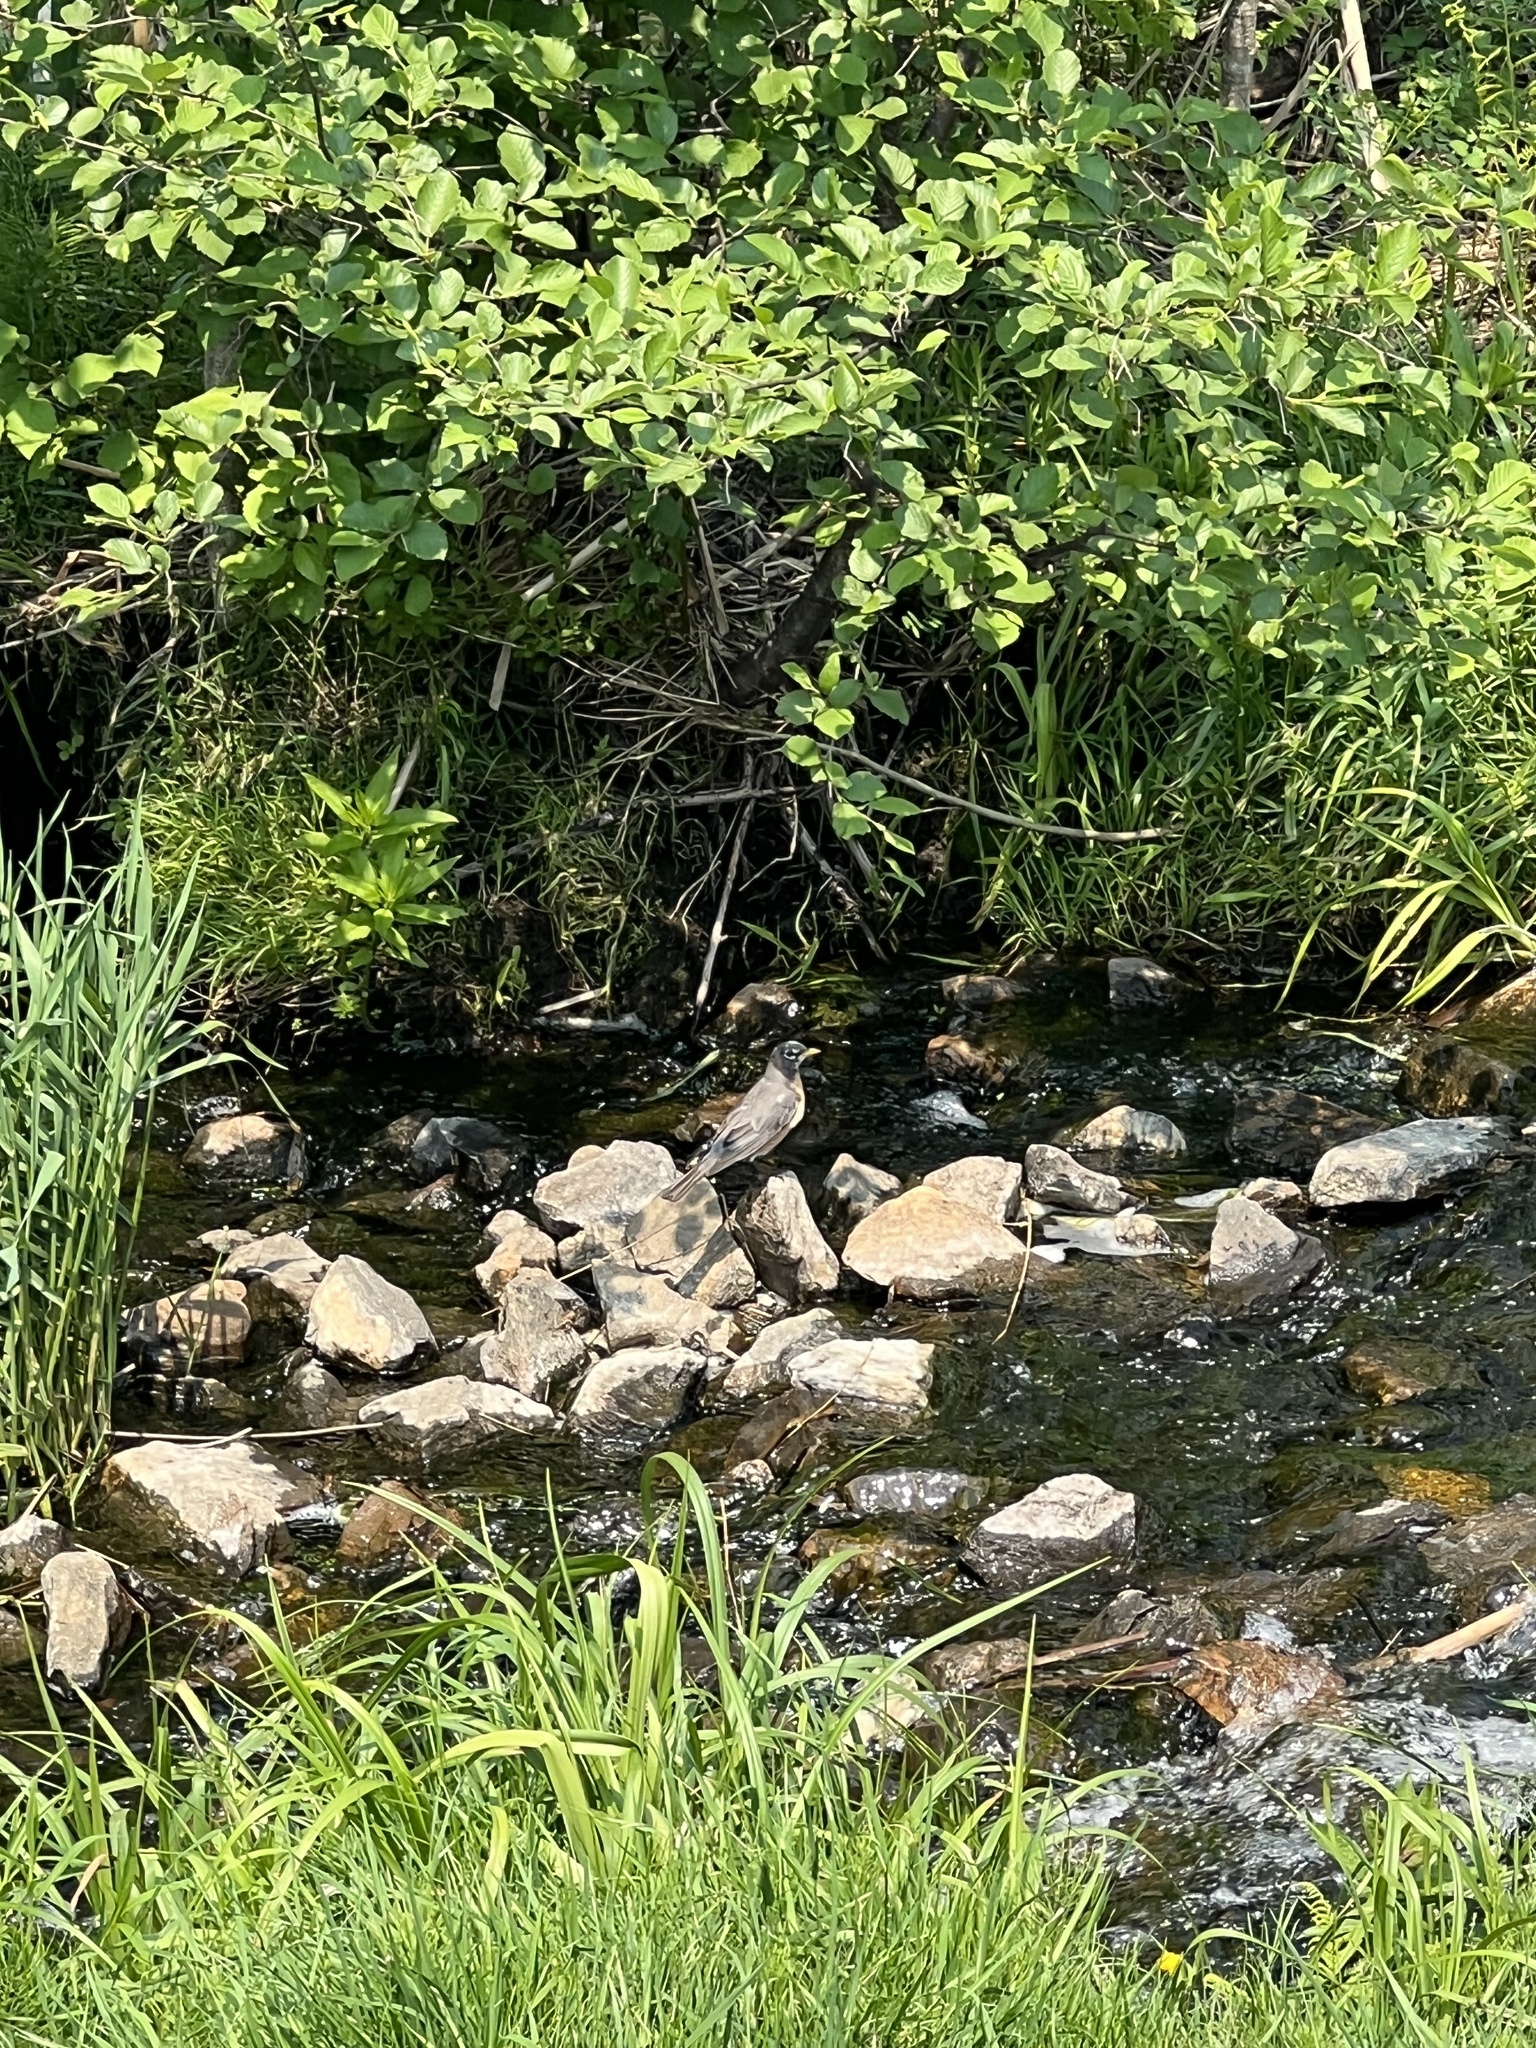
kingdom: Animalia
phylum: Chordata
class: Aves
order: Passeriformes
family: Turdidae
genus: Turdus
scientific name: Turdus migratorius
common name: American robin
